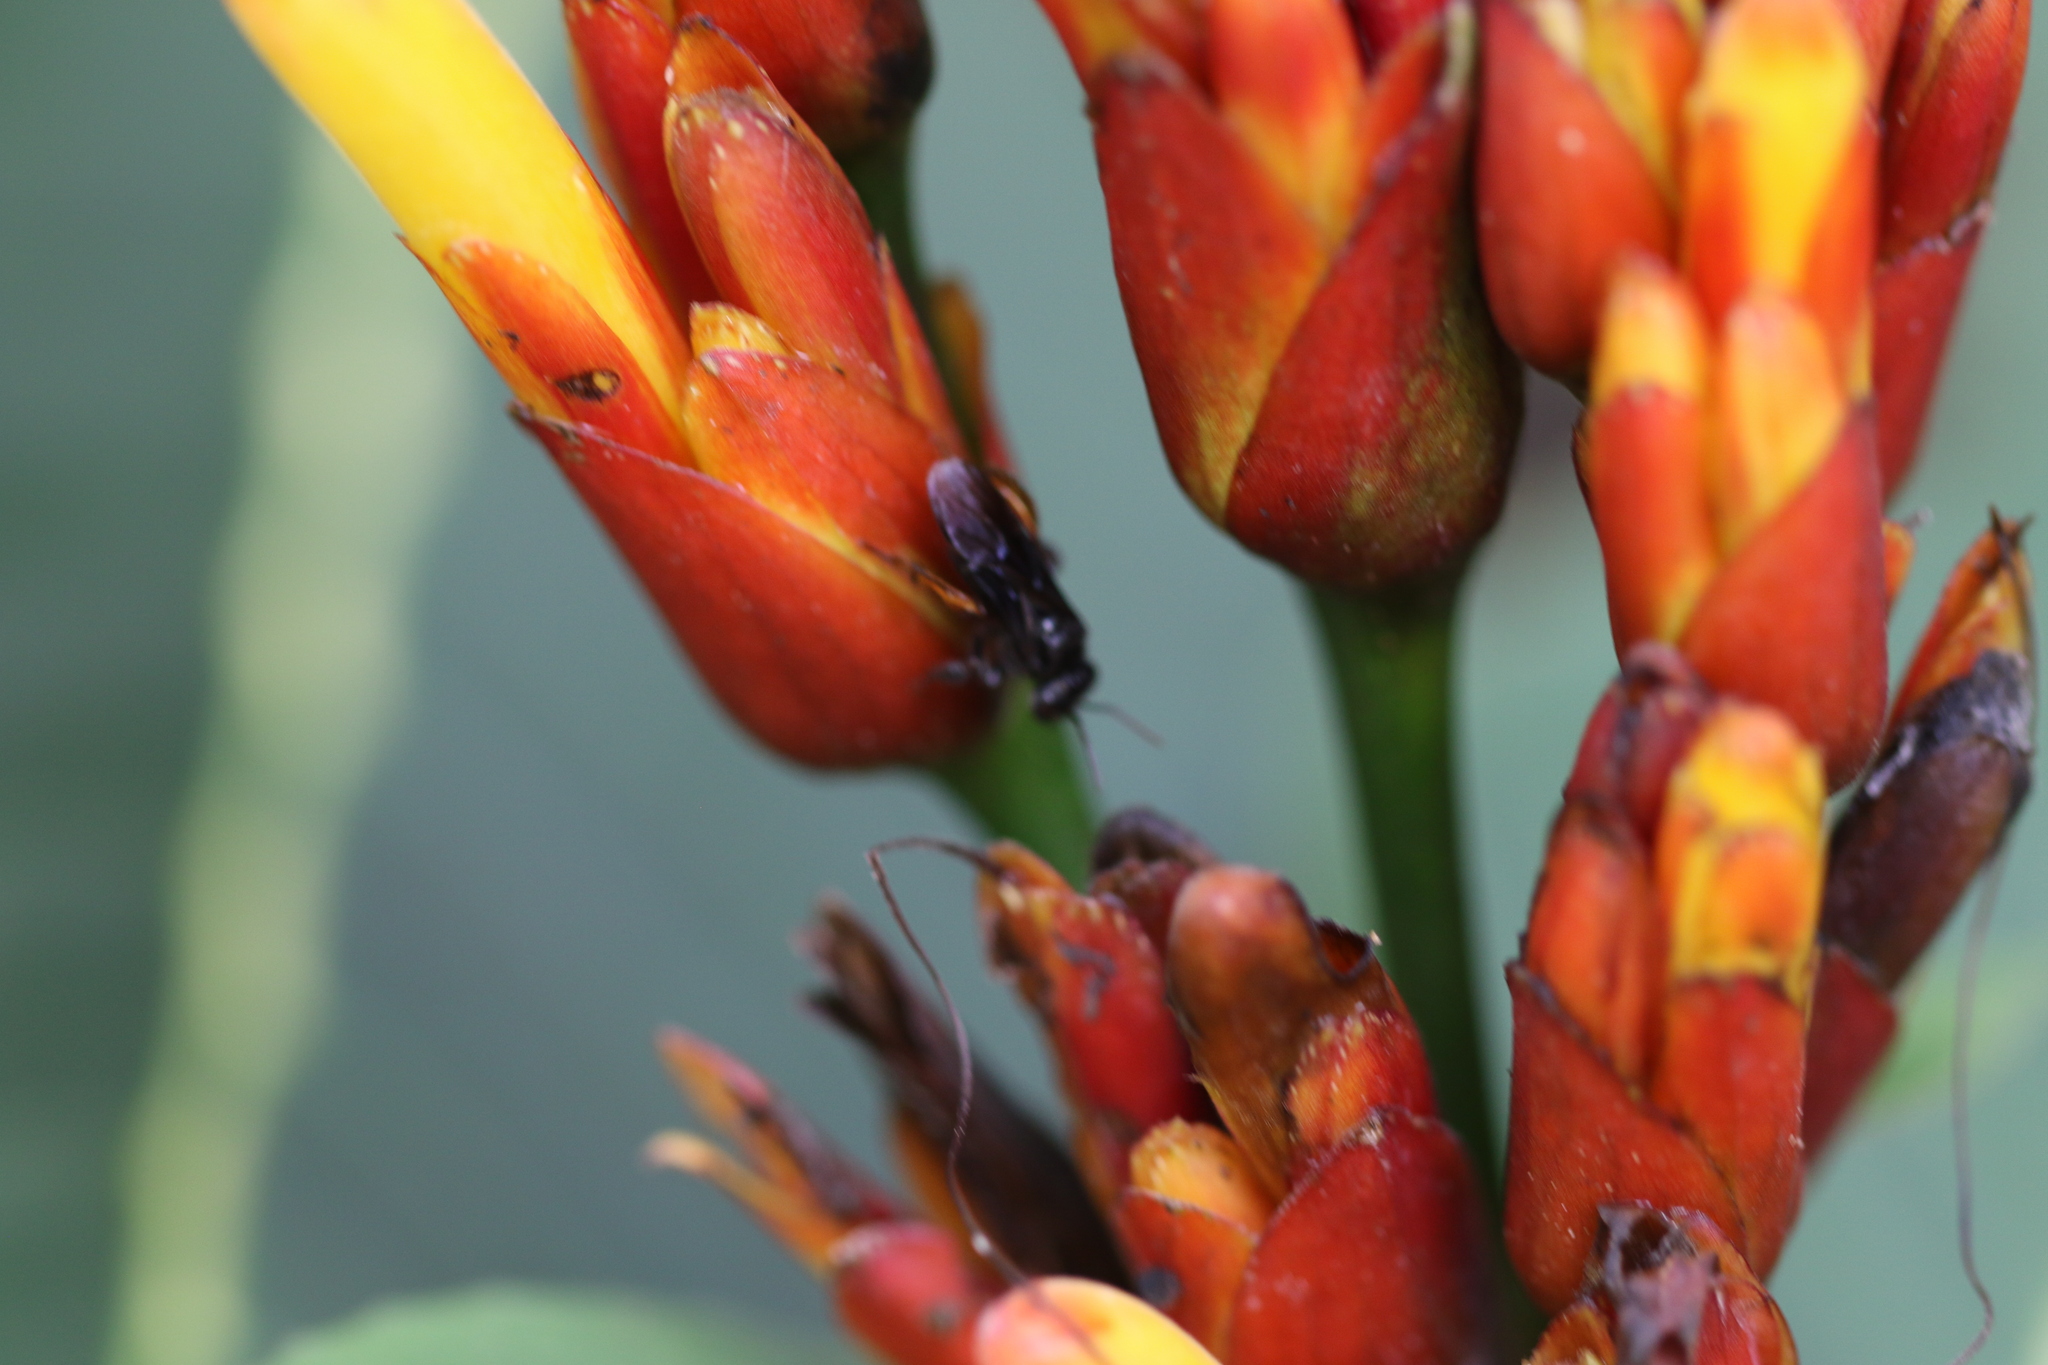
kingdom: Animalia
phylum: Arthropoda
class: Insecta
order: Hymenoptera
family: Apidae
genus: Trigona
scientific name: Trigona spinipes
